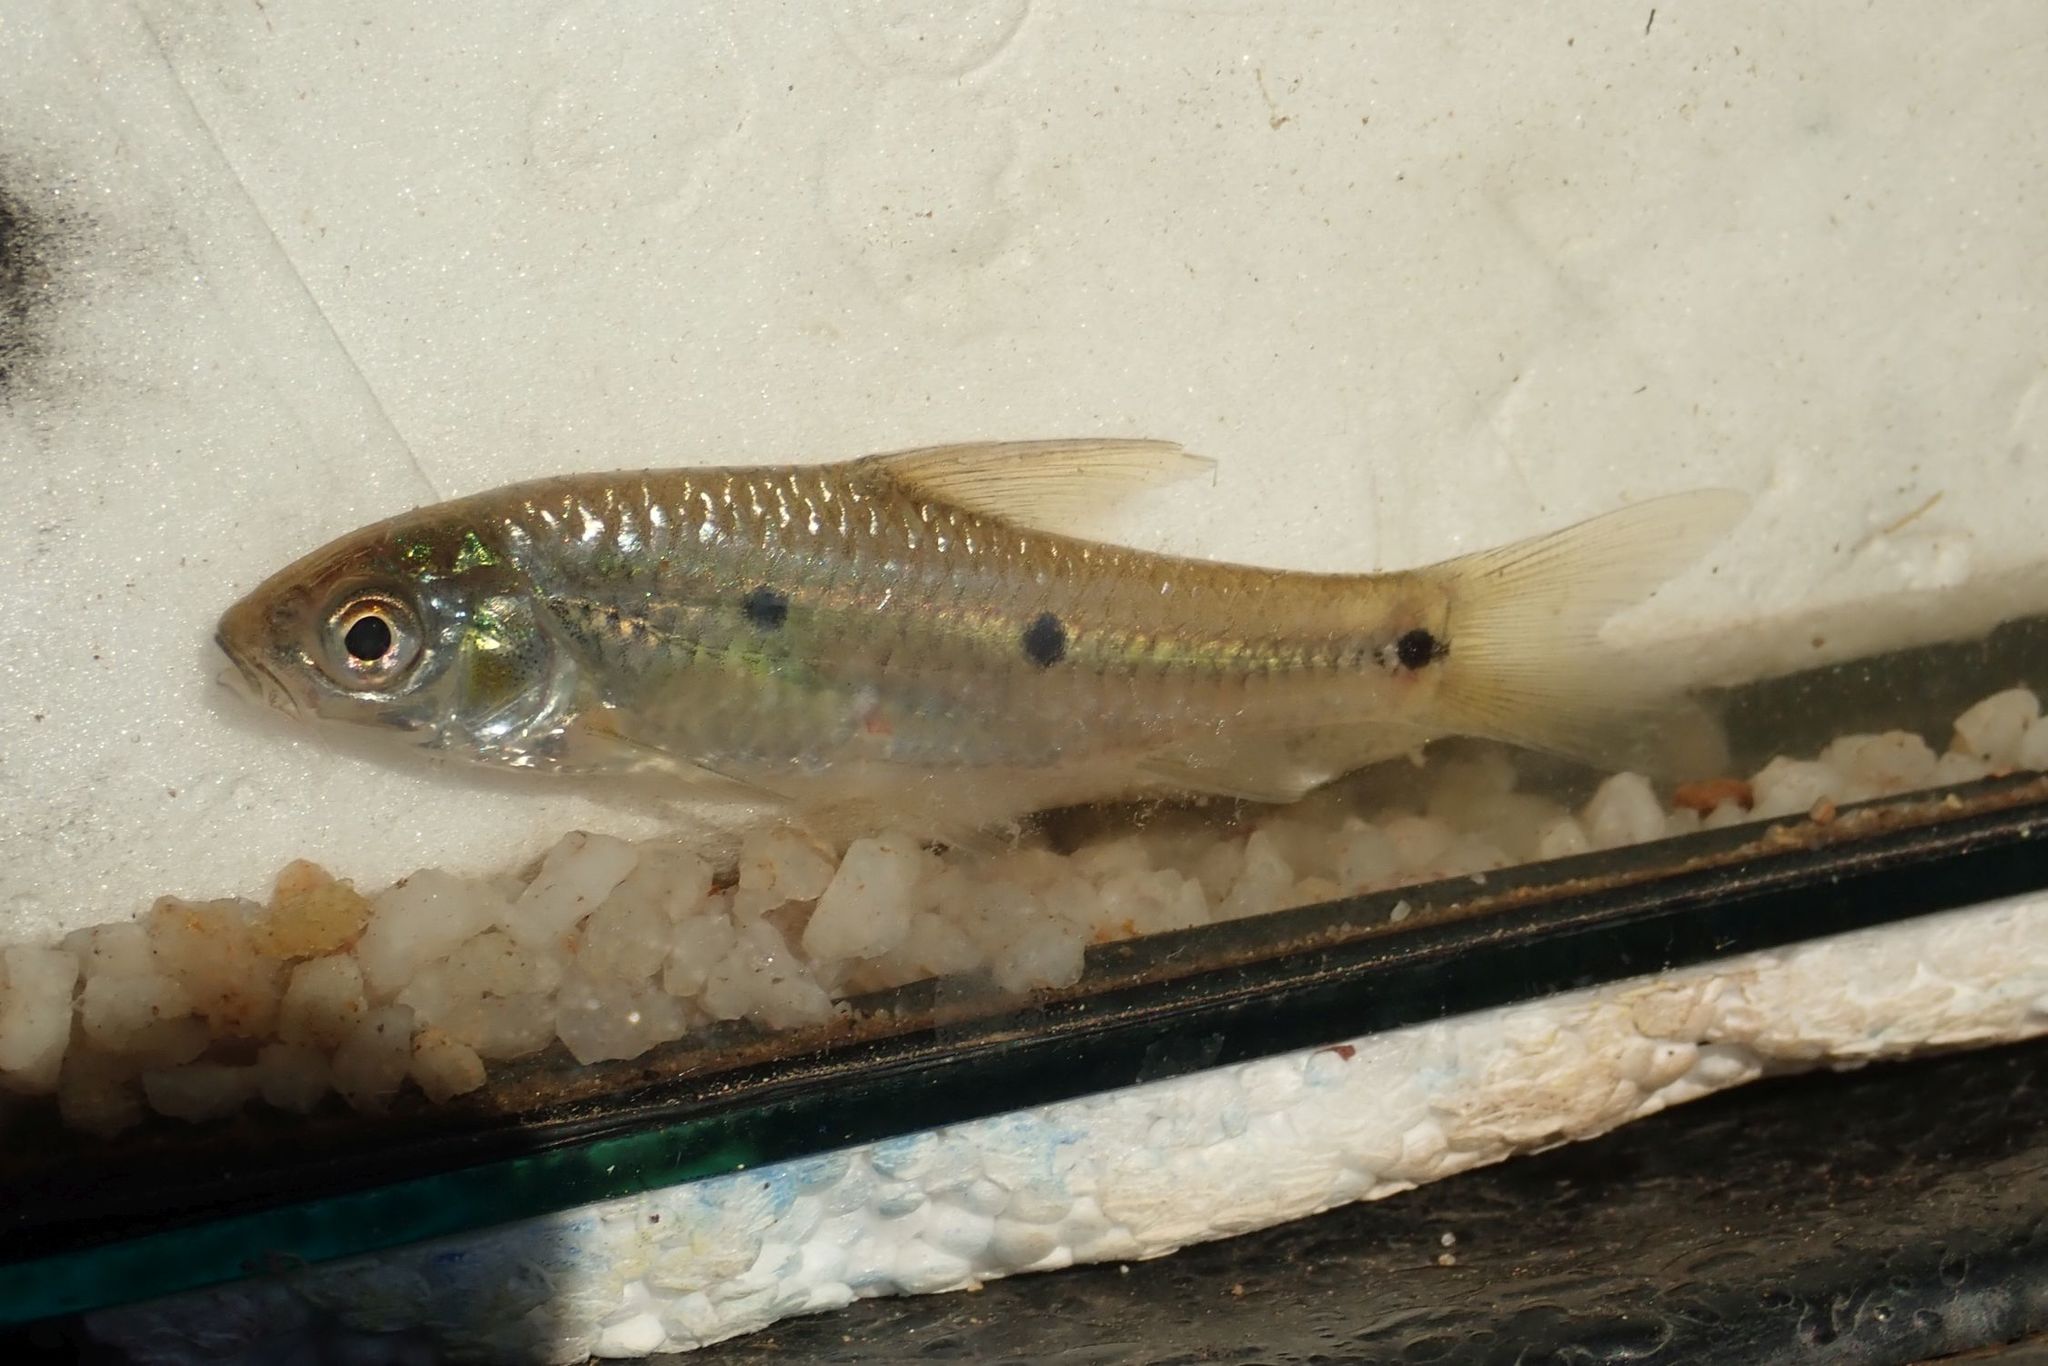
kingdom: Animalia
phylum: Chordata
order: Cypriniformes
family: Cyprinidae
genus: Enteromius
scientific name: Enteromius trimaculatus
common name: Threespot barb
